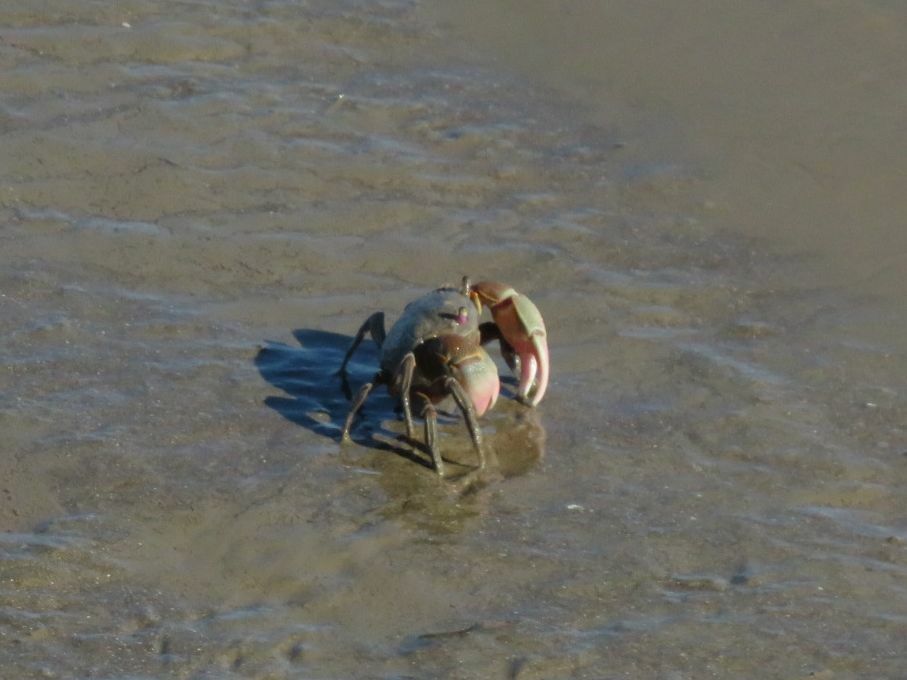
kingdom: Animalia
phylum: Arthropoda
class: Malacostraca
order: Decapoda
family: Varunidae
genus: Neohelice
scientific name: Neohelice granulata
